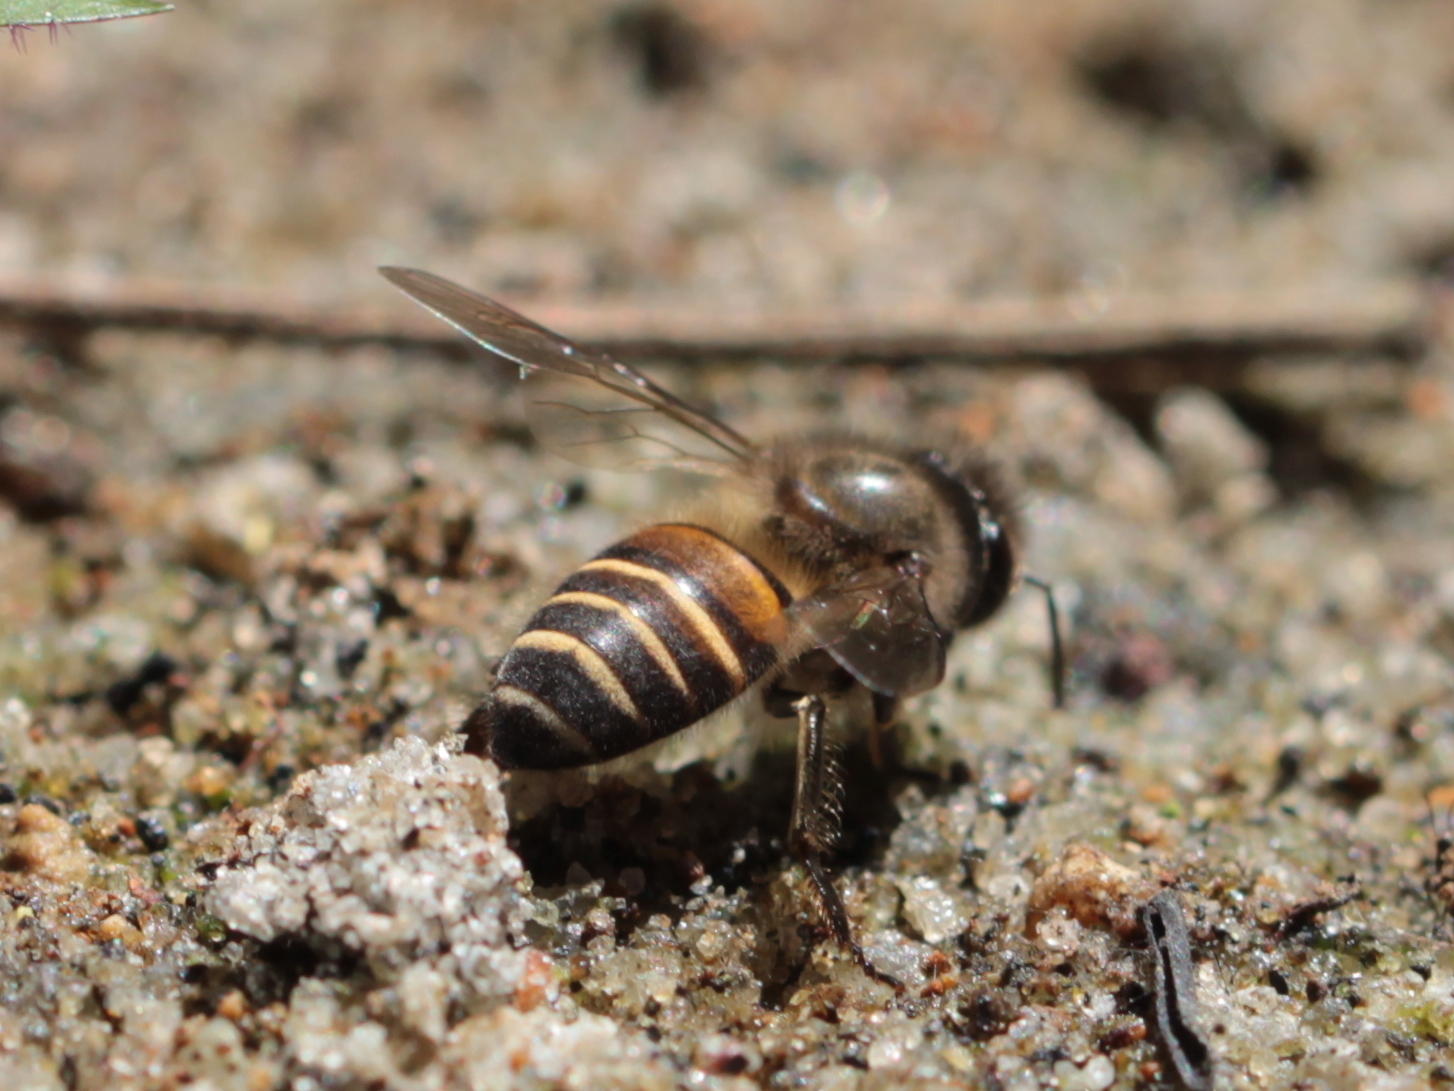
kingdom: Animalia
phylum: Arthropoda
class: Insecta
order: Hymenoptera
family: Apidae
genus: Apis
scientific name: Apis cerana
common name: Honey bee
